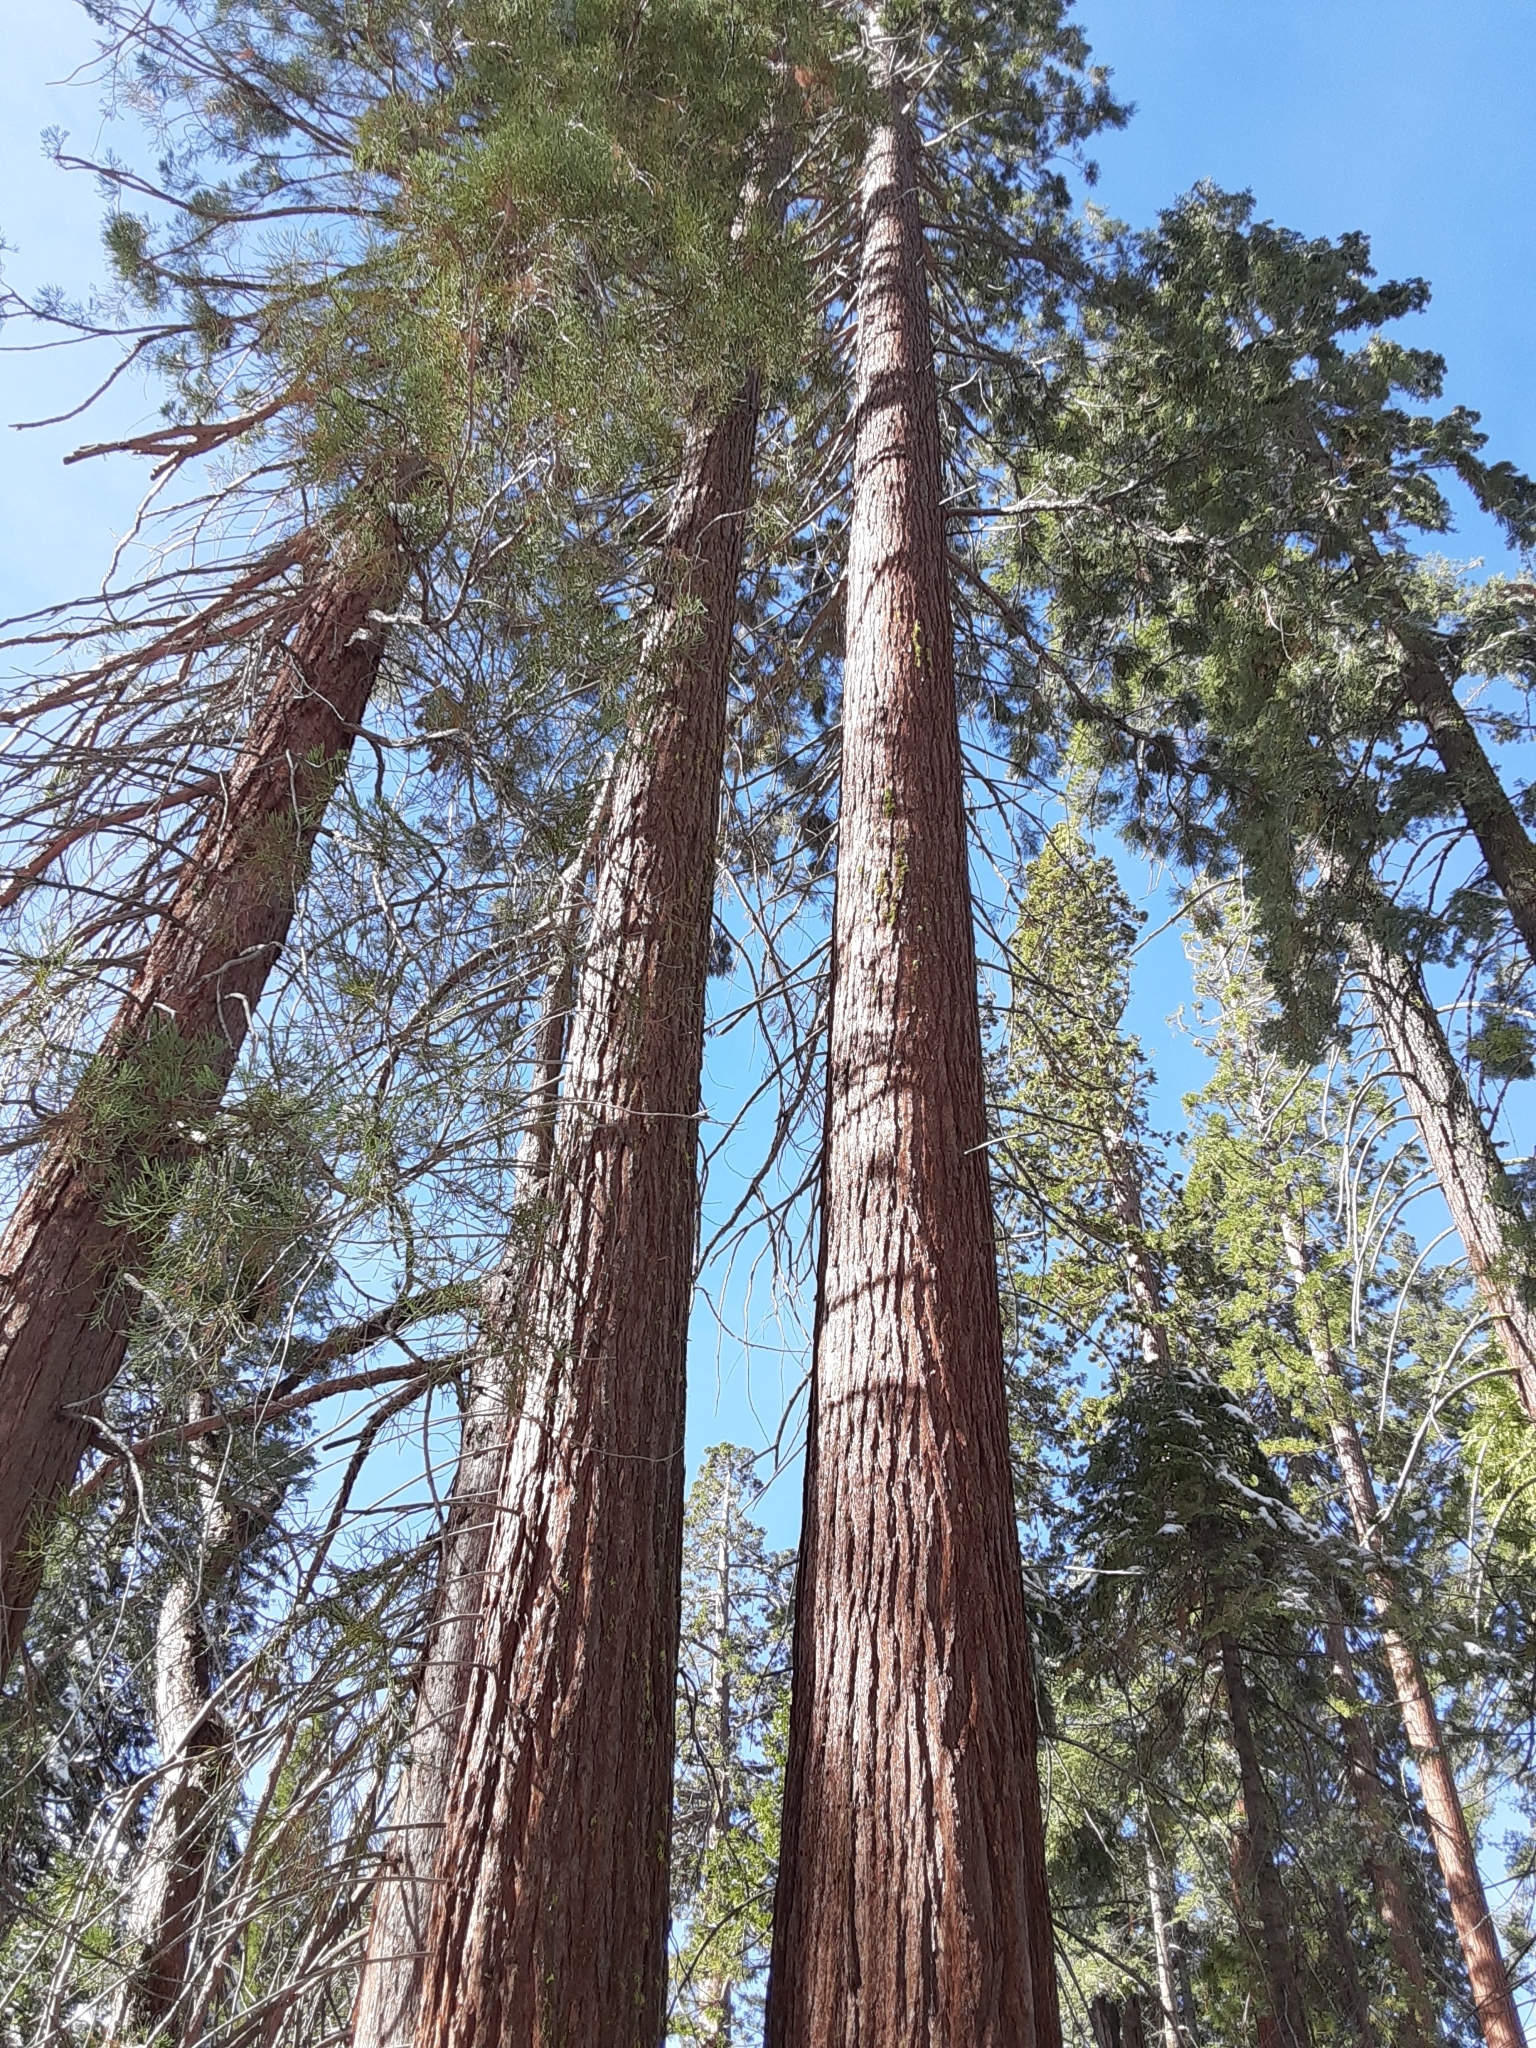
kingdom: Plantae
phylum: Tracheophyta
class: Pinopsida
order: Pinales
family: Cupressaceae
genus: Sequoiadendron
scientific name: Sequoiadendron giganteum
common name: Wellingtonia
